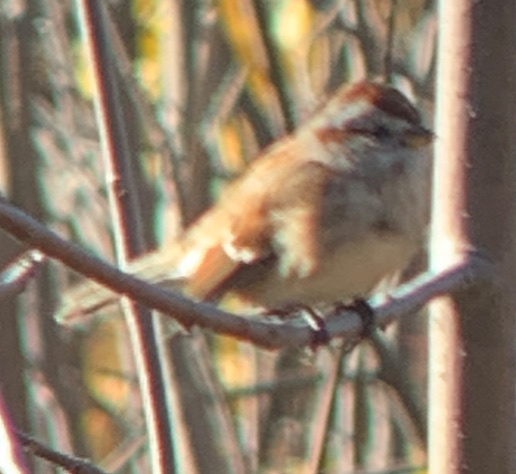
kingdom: Animalia
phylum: Chordata
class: Aves
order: Passeriformes
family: Passerellidae
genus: Spizelloides
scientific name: Spizelloides arborea
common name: American tree sparrow
